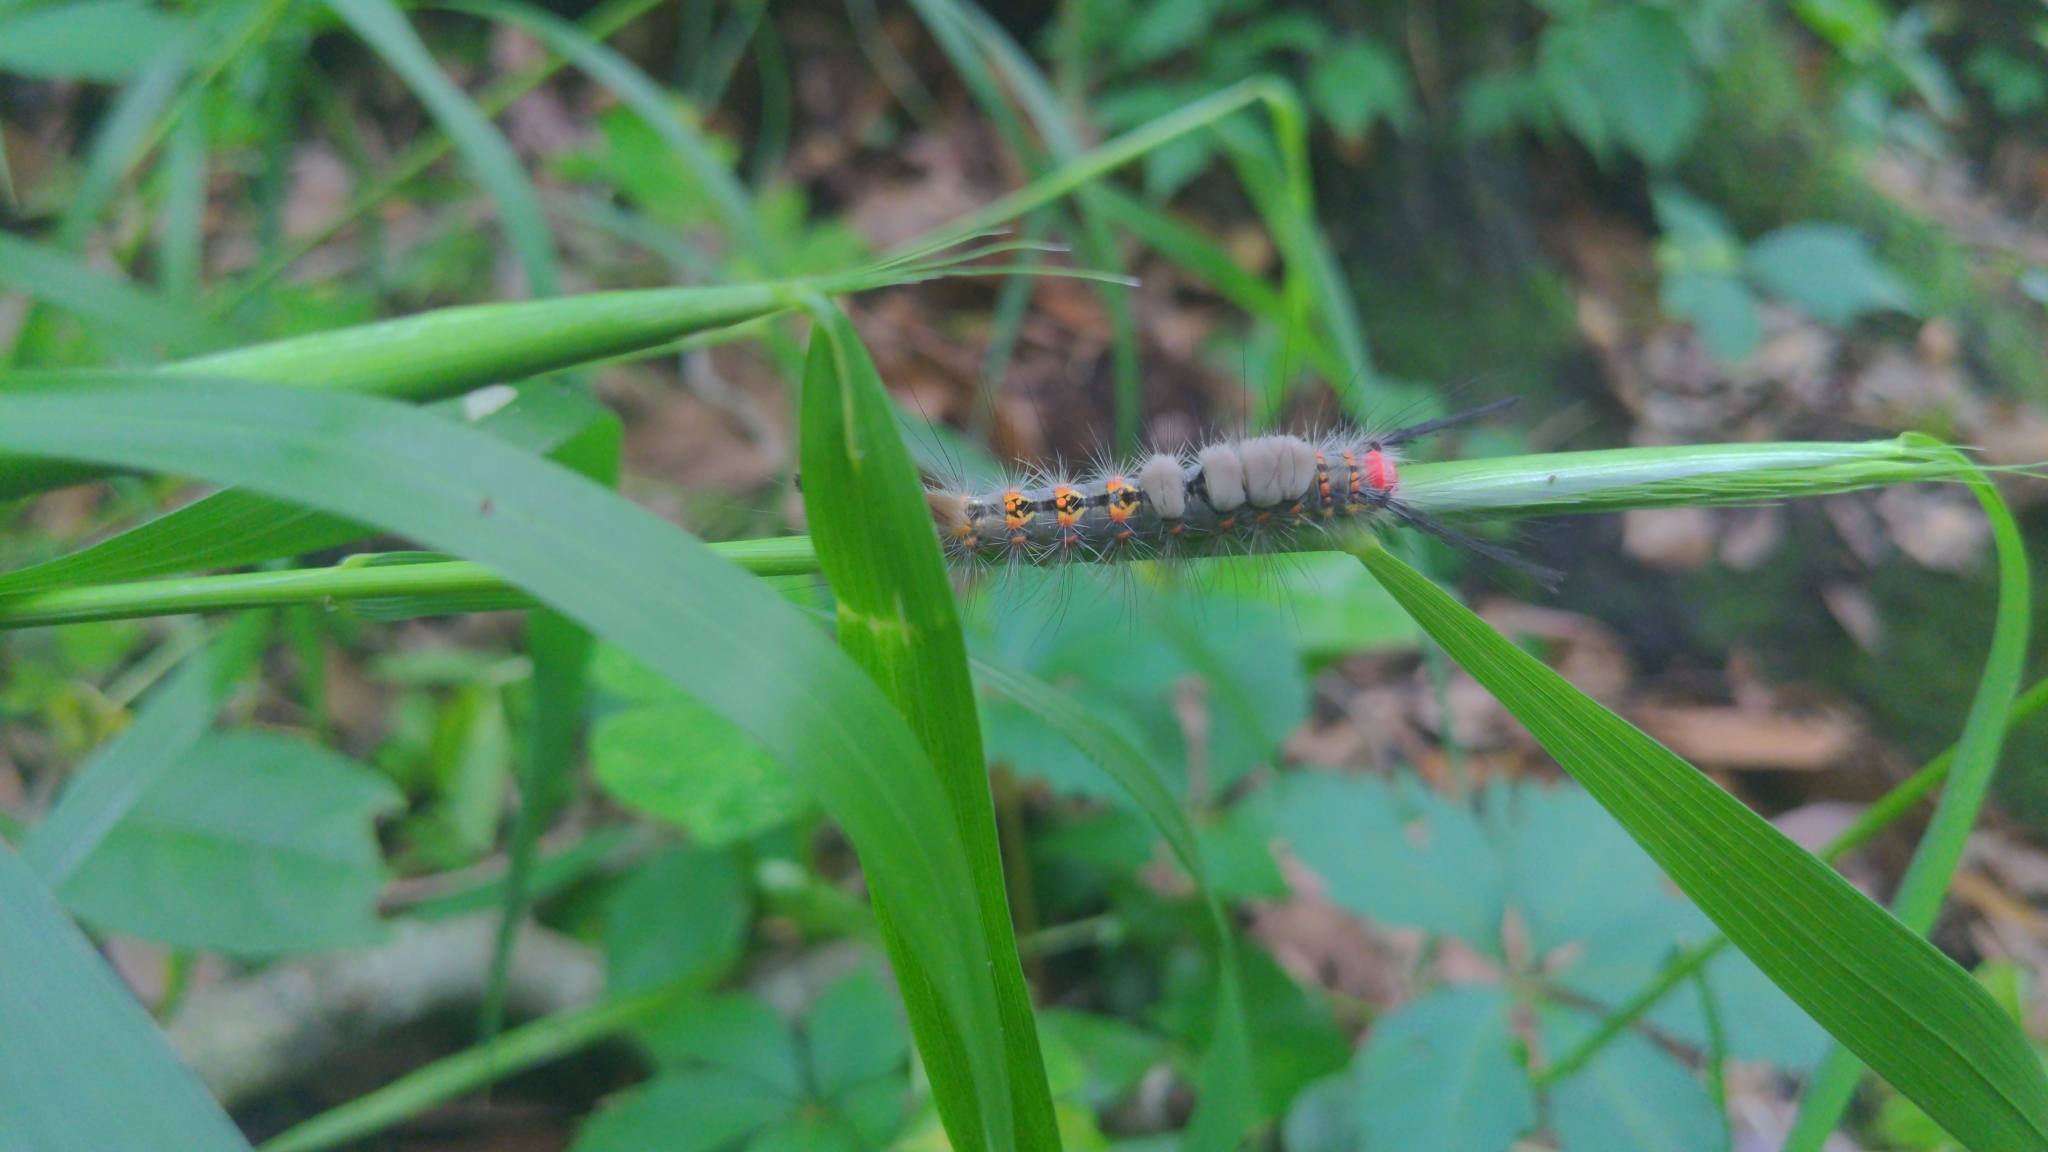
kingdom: Animalia
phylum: Arthropoda
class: Insecta
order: Lepidoptera
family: Erebidae
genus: Orgyia
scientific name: Orgyia detrita
